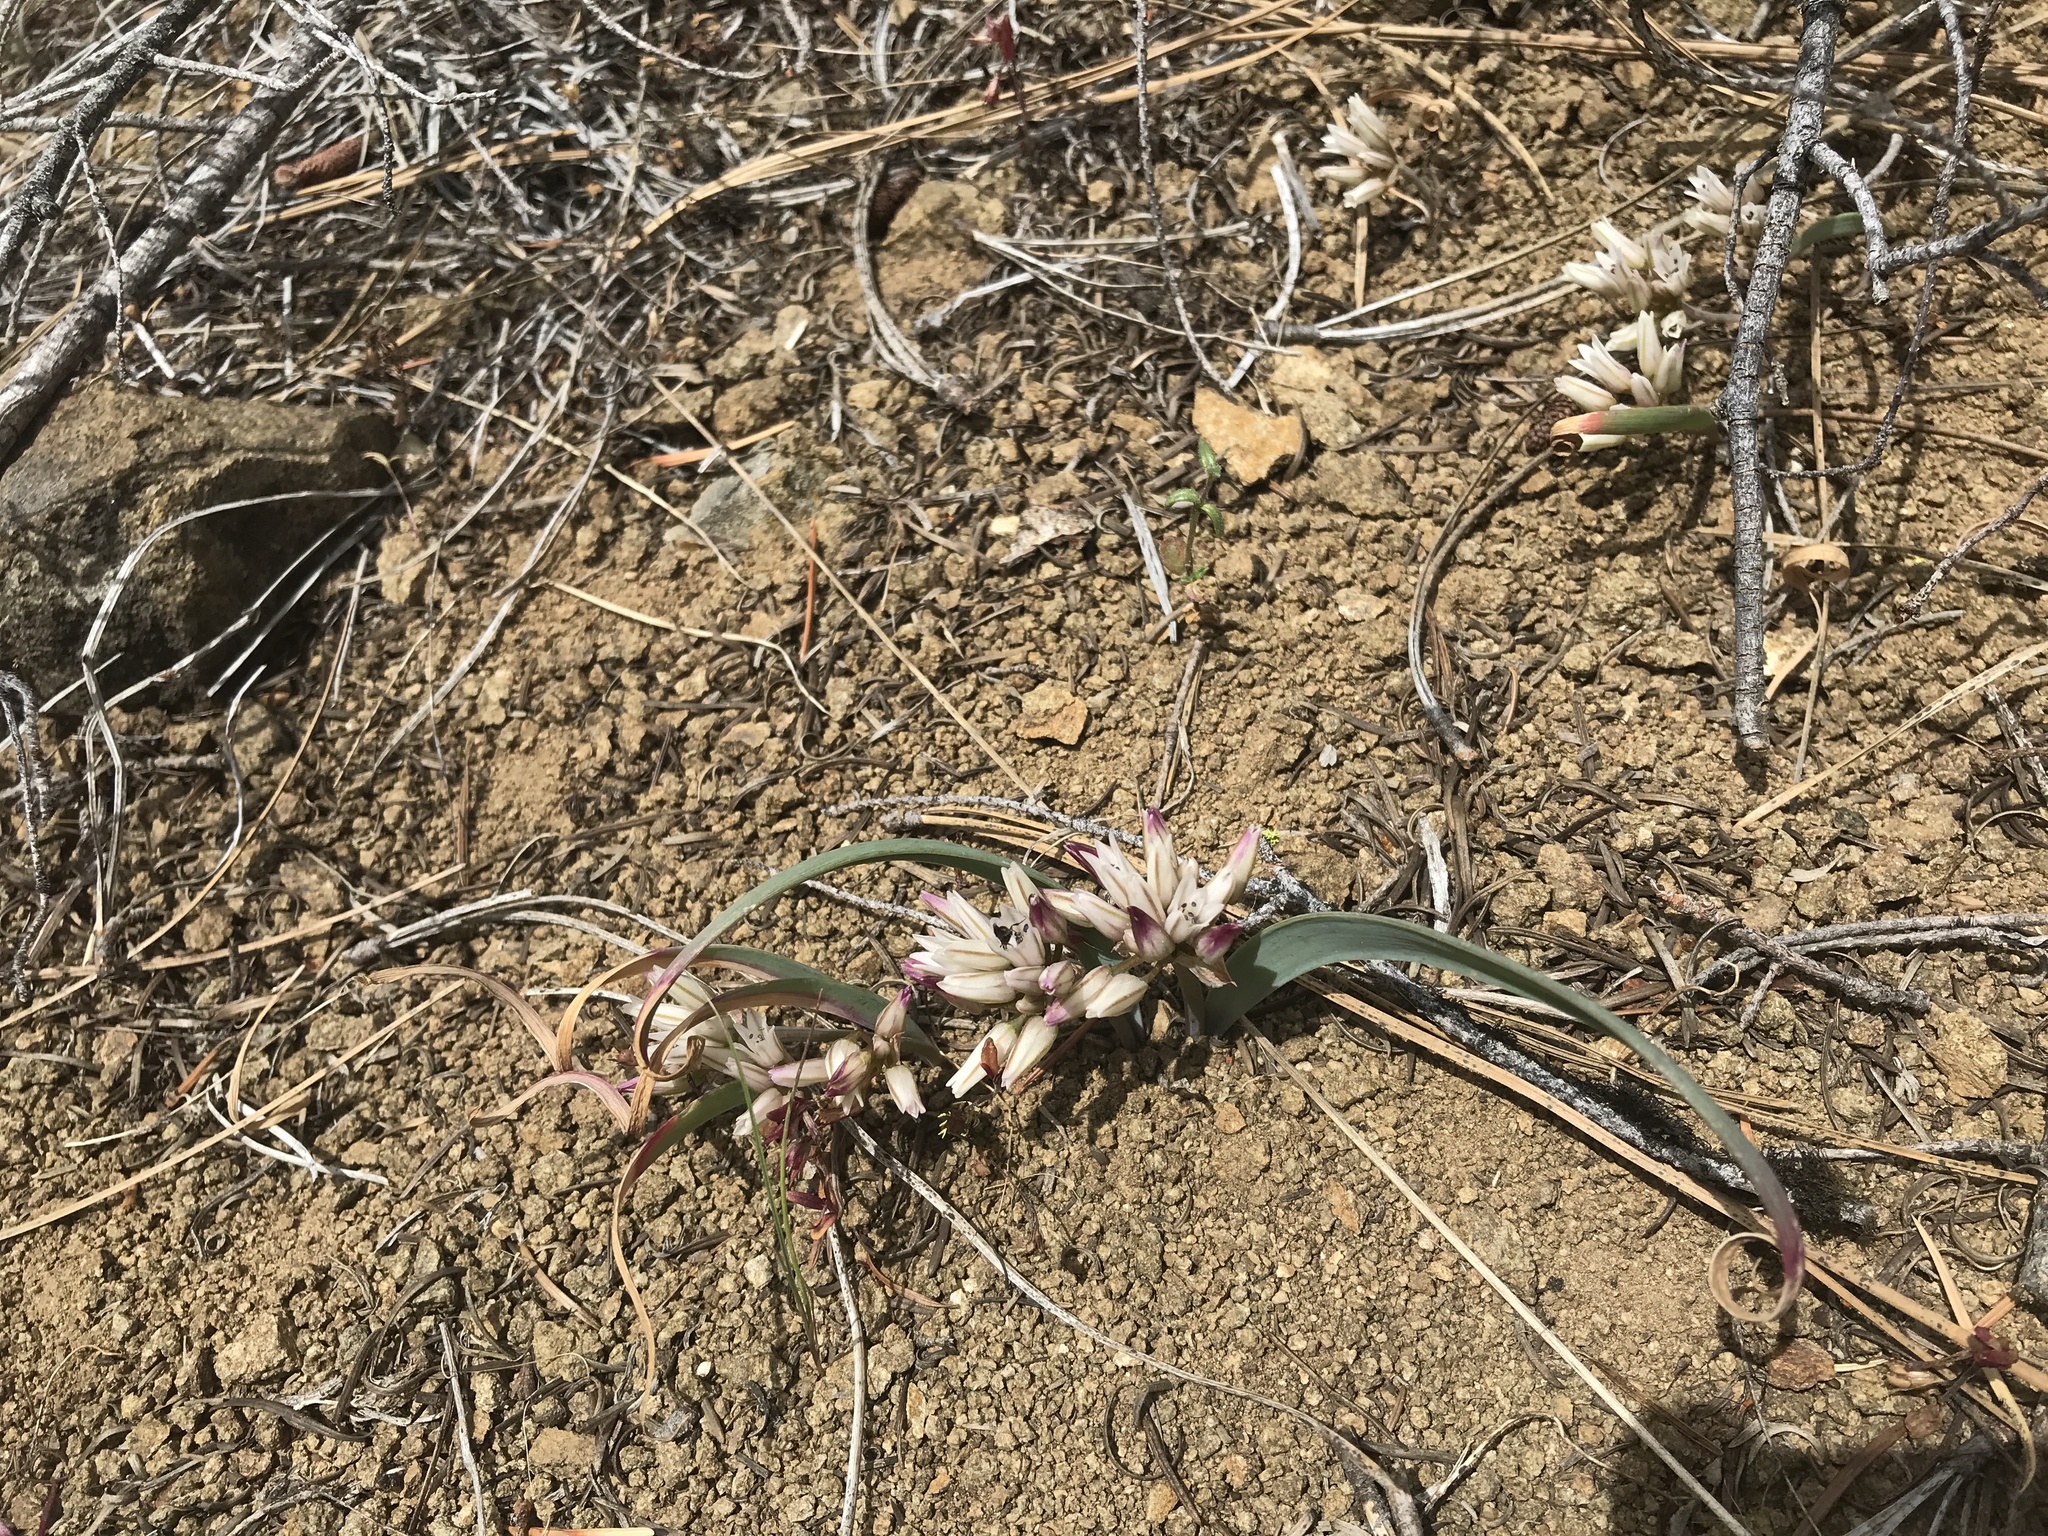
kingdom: Plantae
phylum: Tracheophyta
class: Liliopsida
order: Asparagales
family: Amaryllidaceae
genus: Allium
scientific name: Allium crenulatum
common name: Olympic onion
